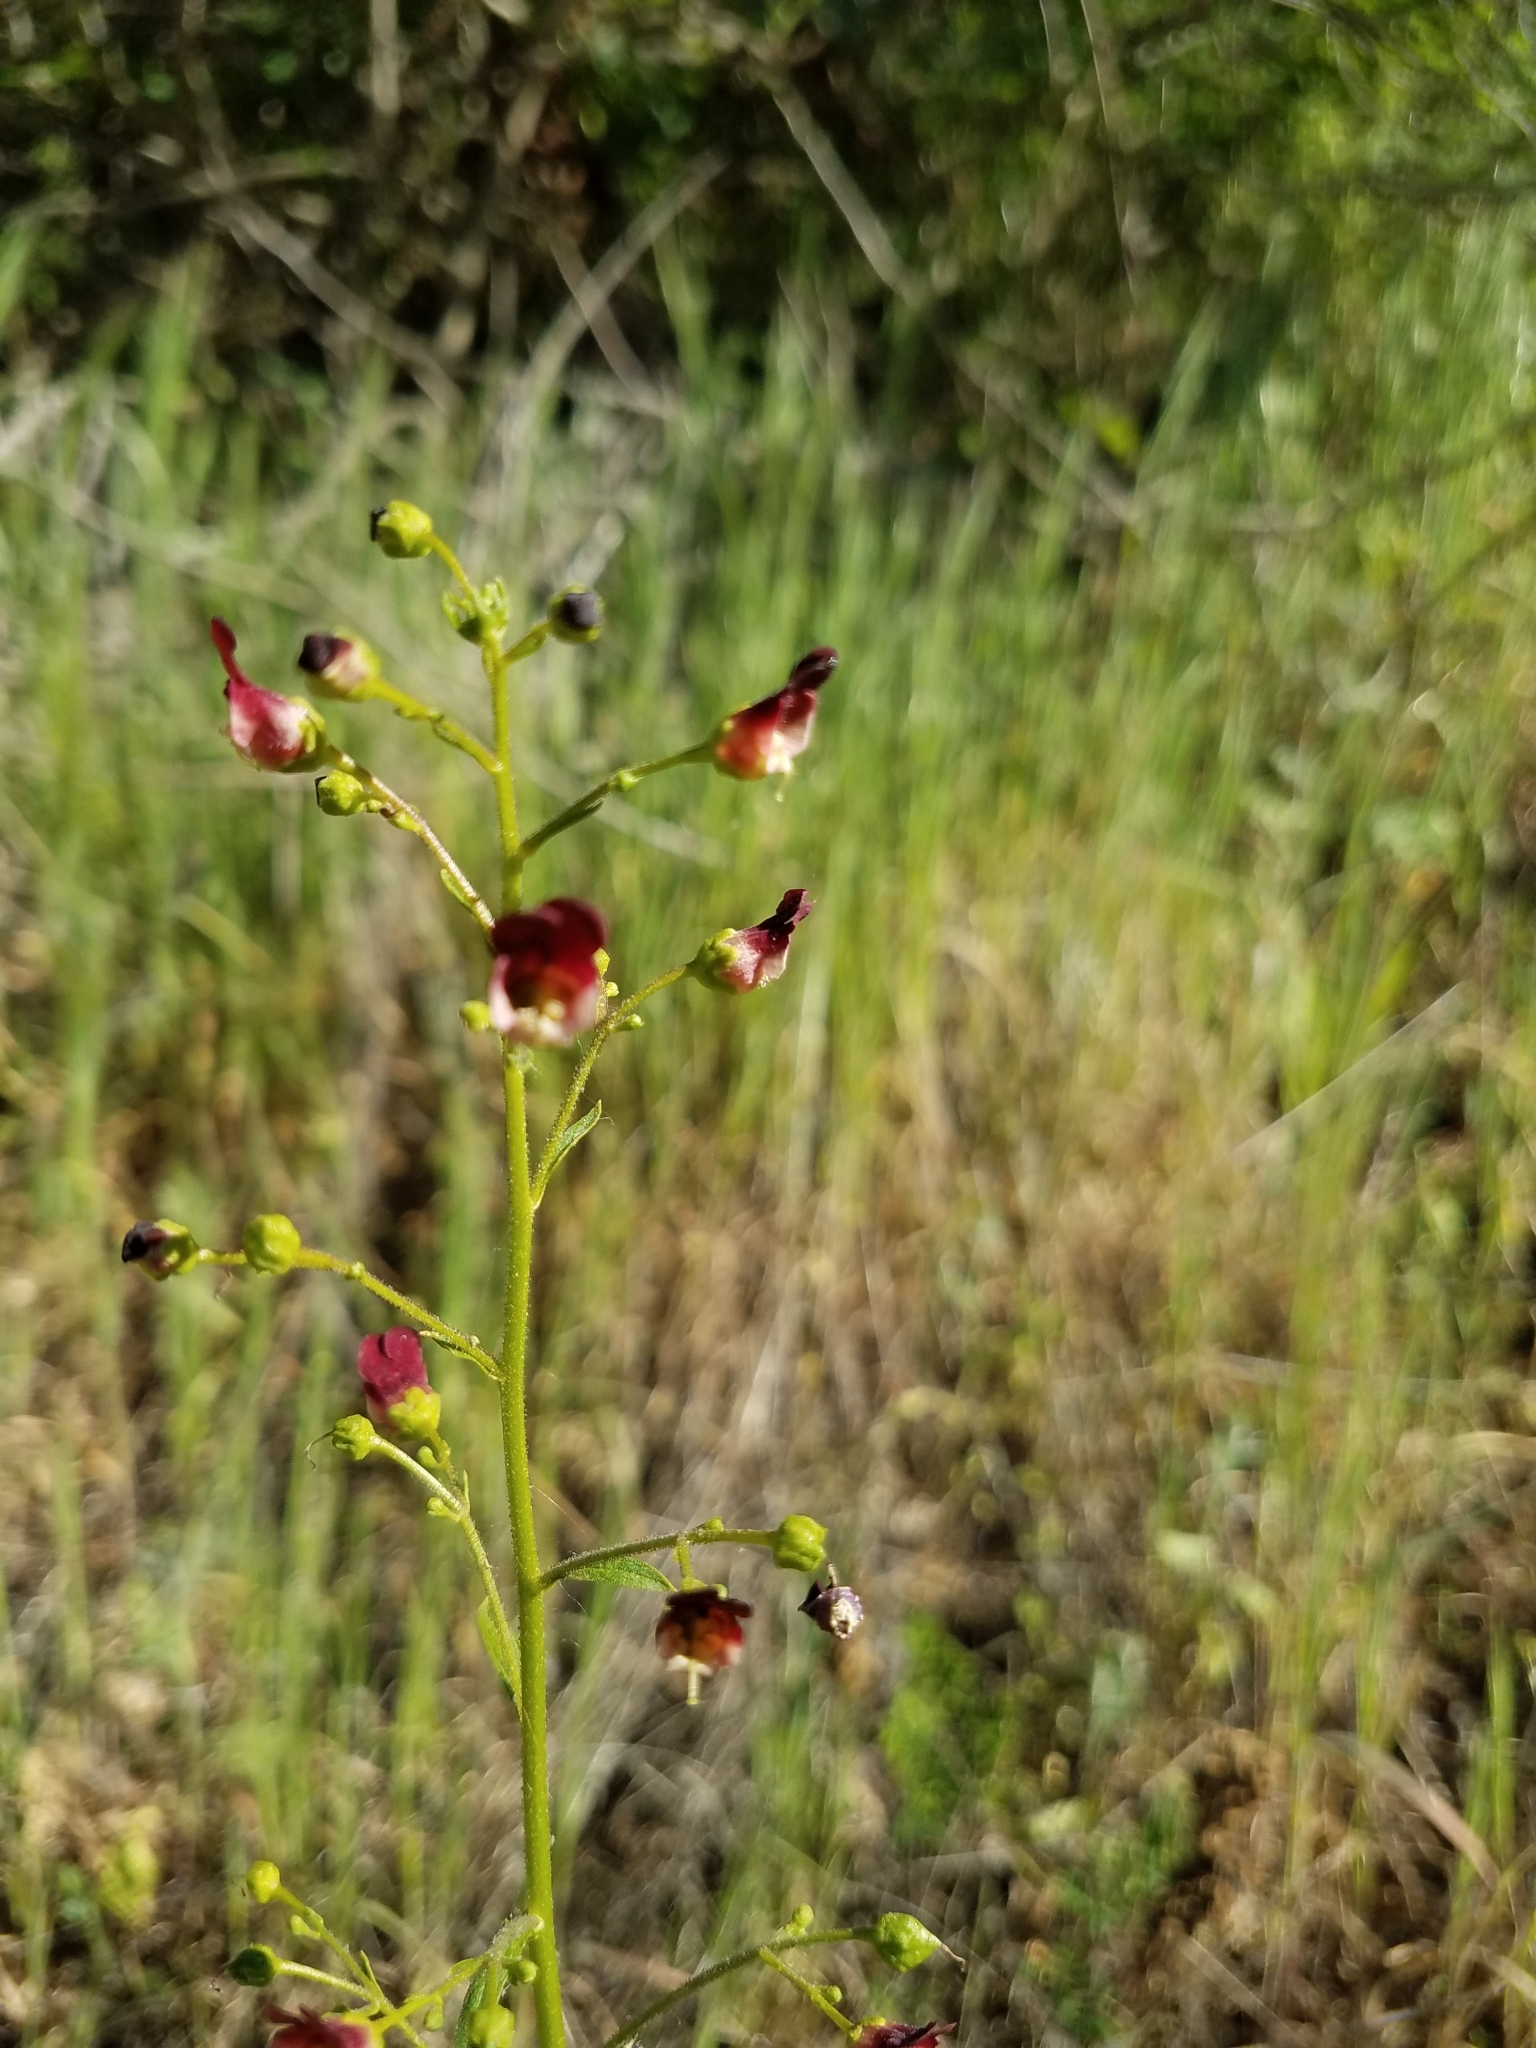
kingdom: Plantae
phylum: Tracheophyta
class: Magnoliopsida
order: Lamiales
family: Scrophulariaceae
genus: Scrophularia
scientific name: Scrophularia californica
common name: California figwort
